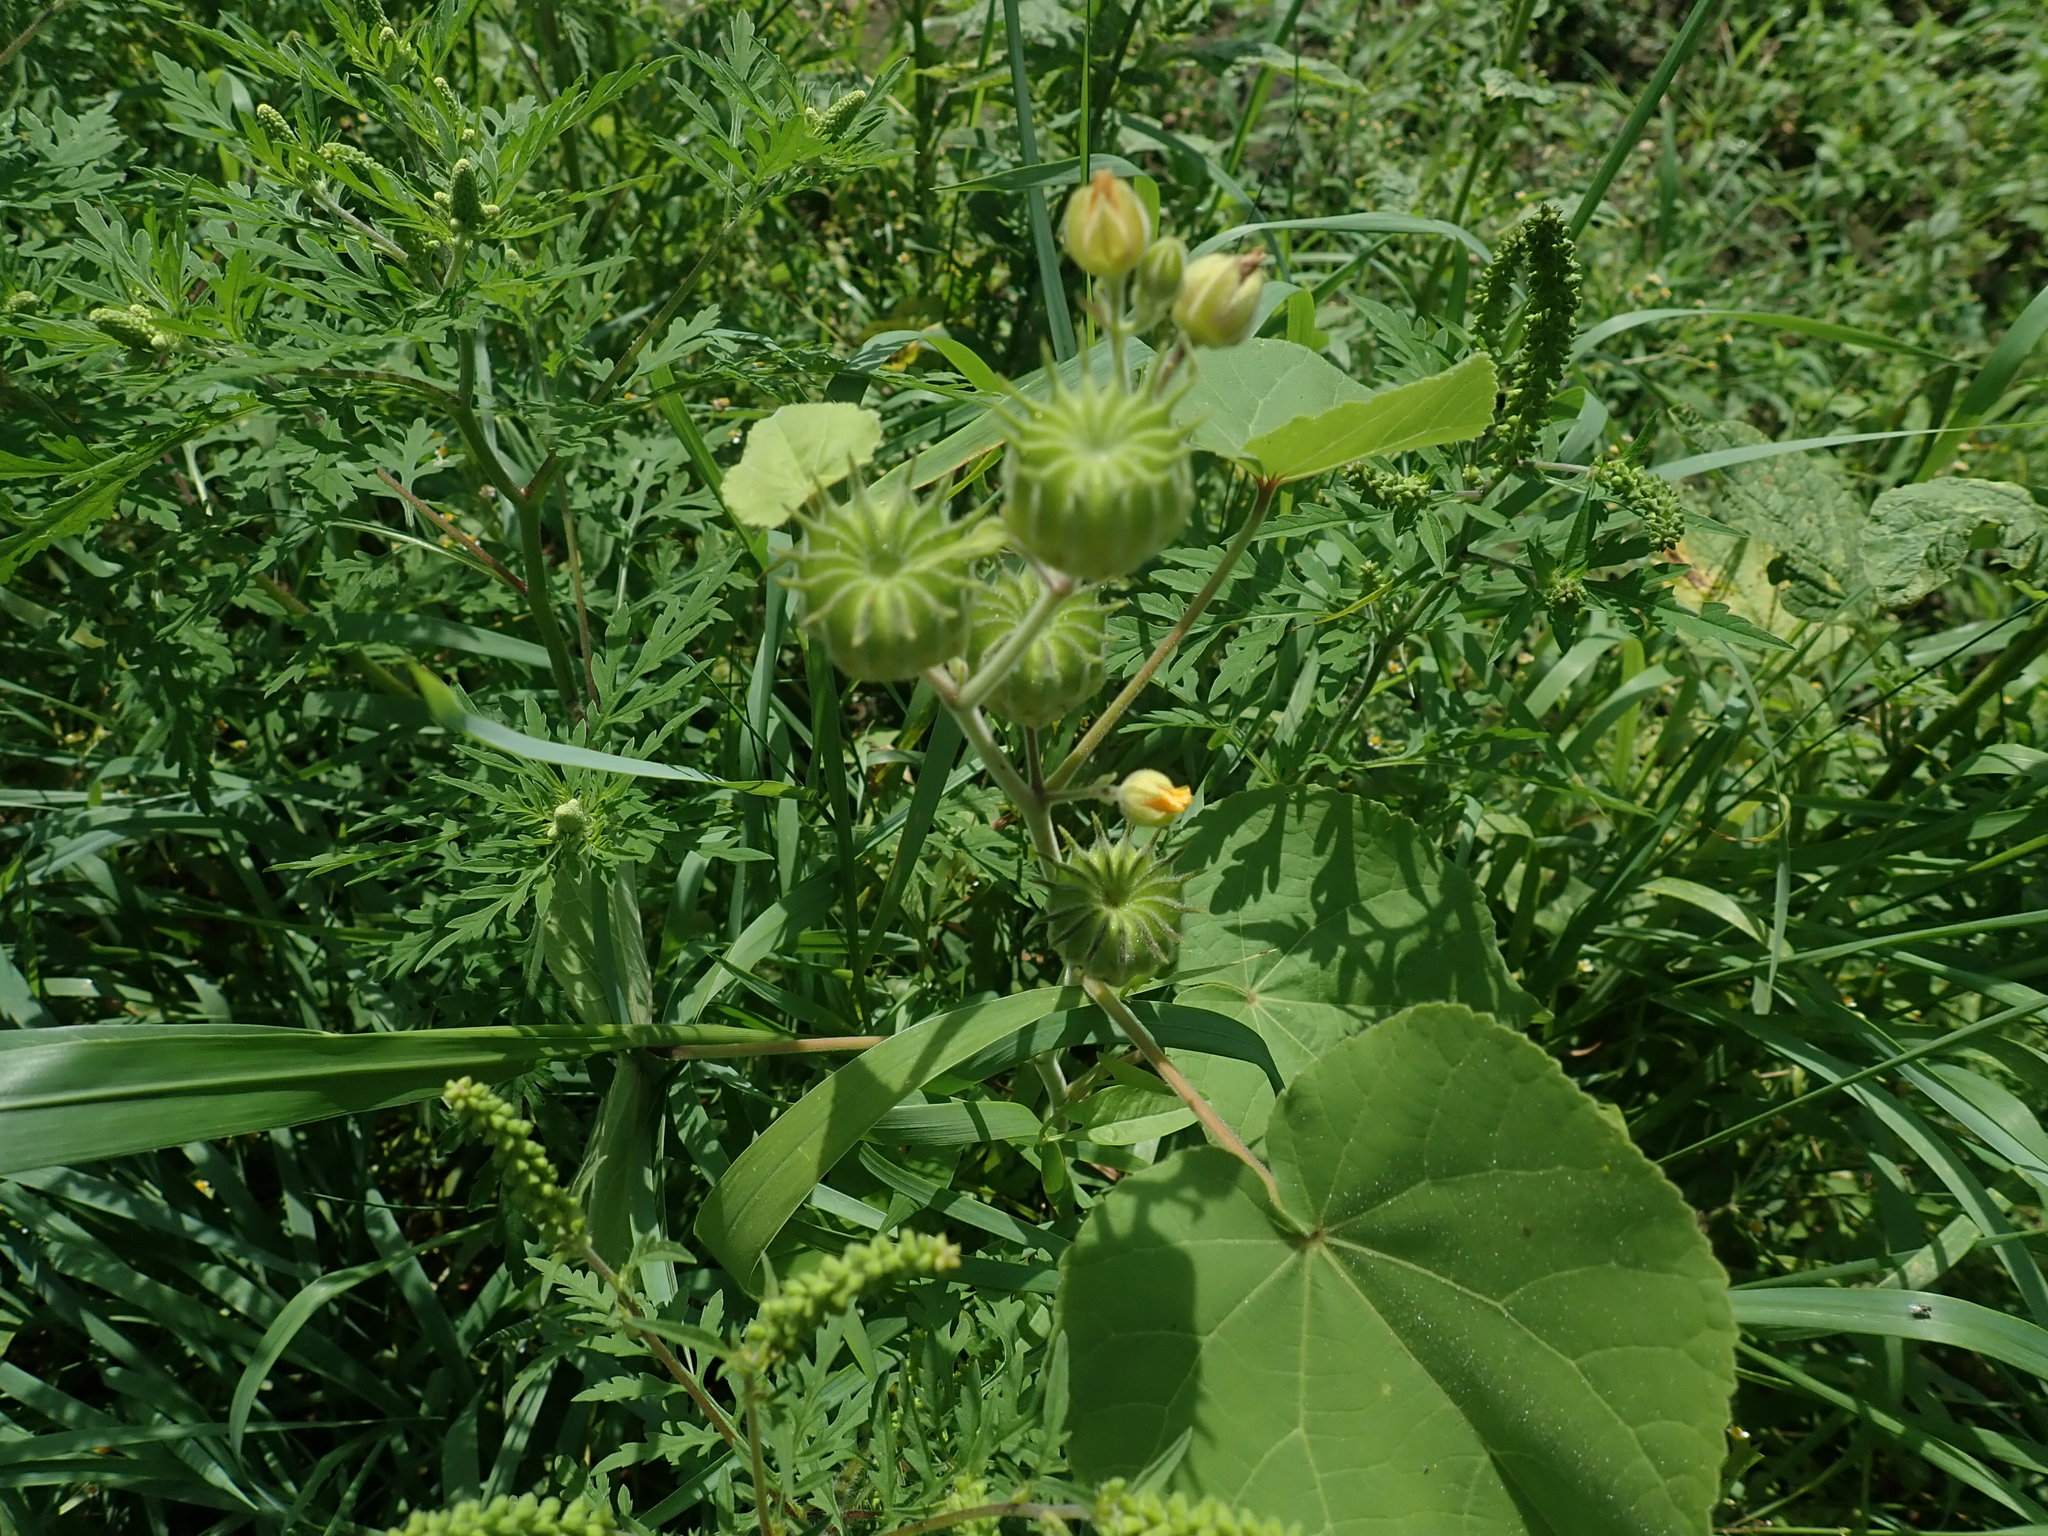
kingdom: Plantae
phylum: Tracheophyta
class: Magnoliopsida
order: Malvales
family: Malvaceae
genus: Abutilon
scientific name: Abutilon theophrasti
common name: Velvetleaf
